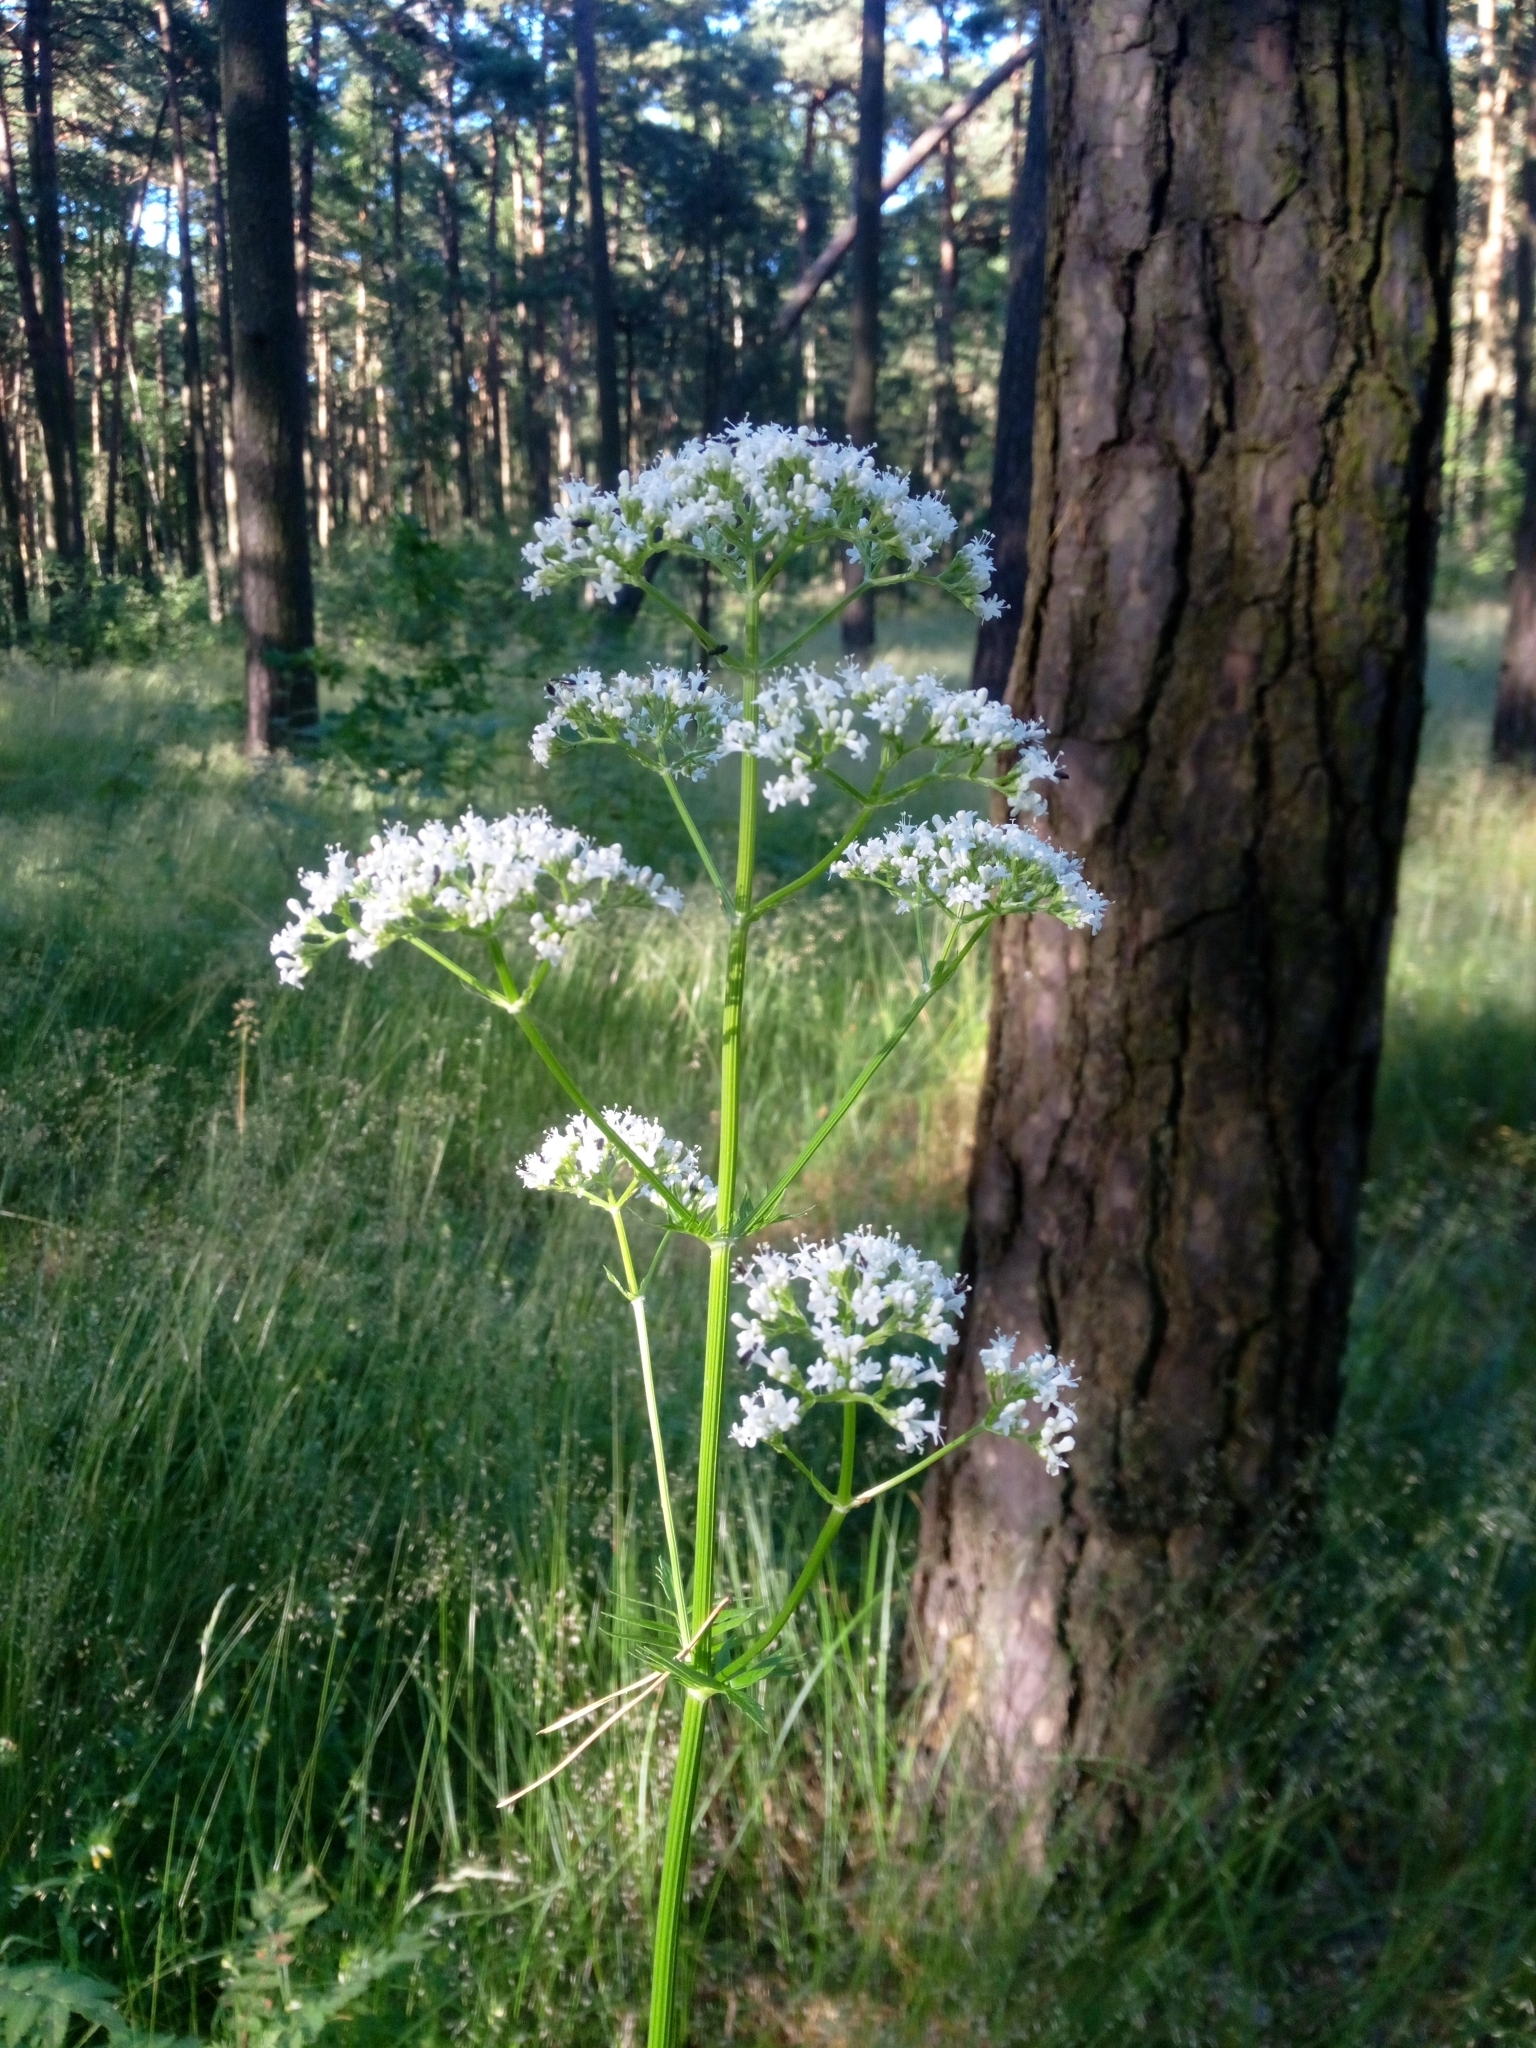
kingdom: Plantae
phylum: Tracheophyta
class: Magnoliopsida
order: Dipsacales
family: Caprifoliaceae
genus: Valeriana
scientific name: Valeriana officinalis
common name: Common valerian
